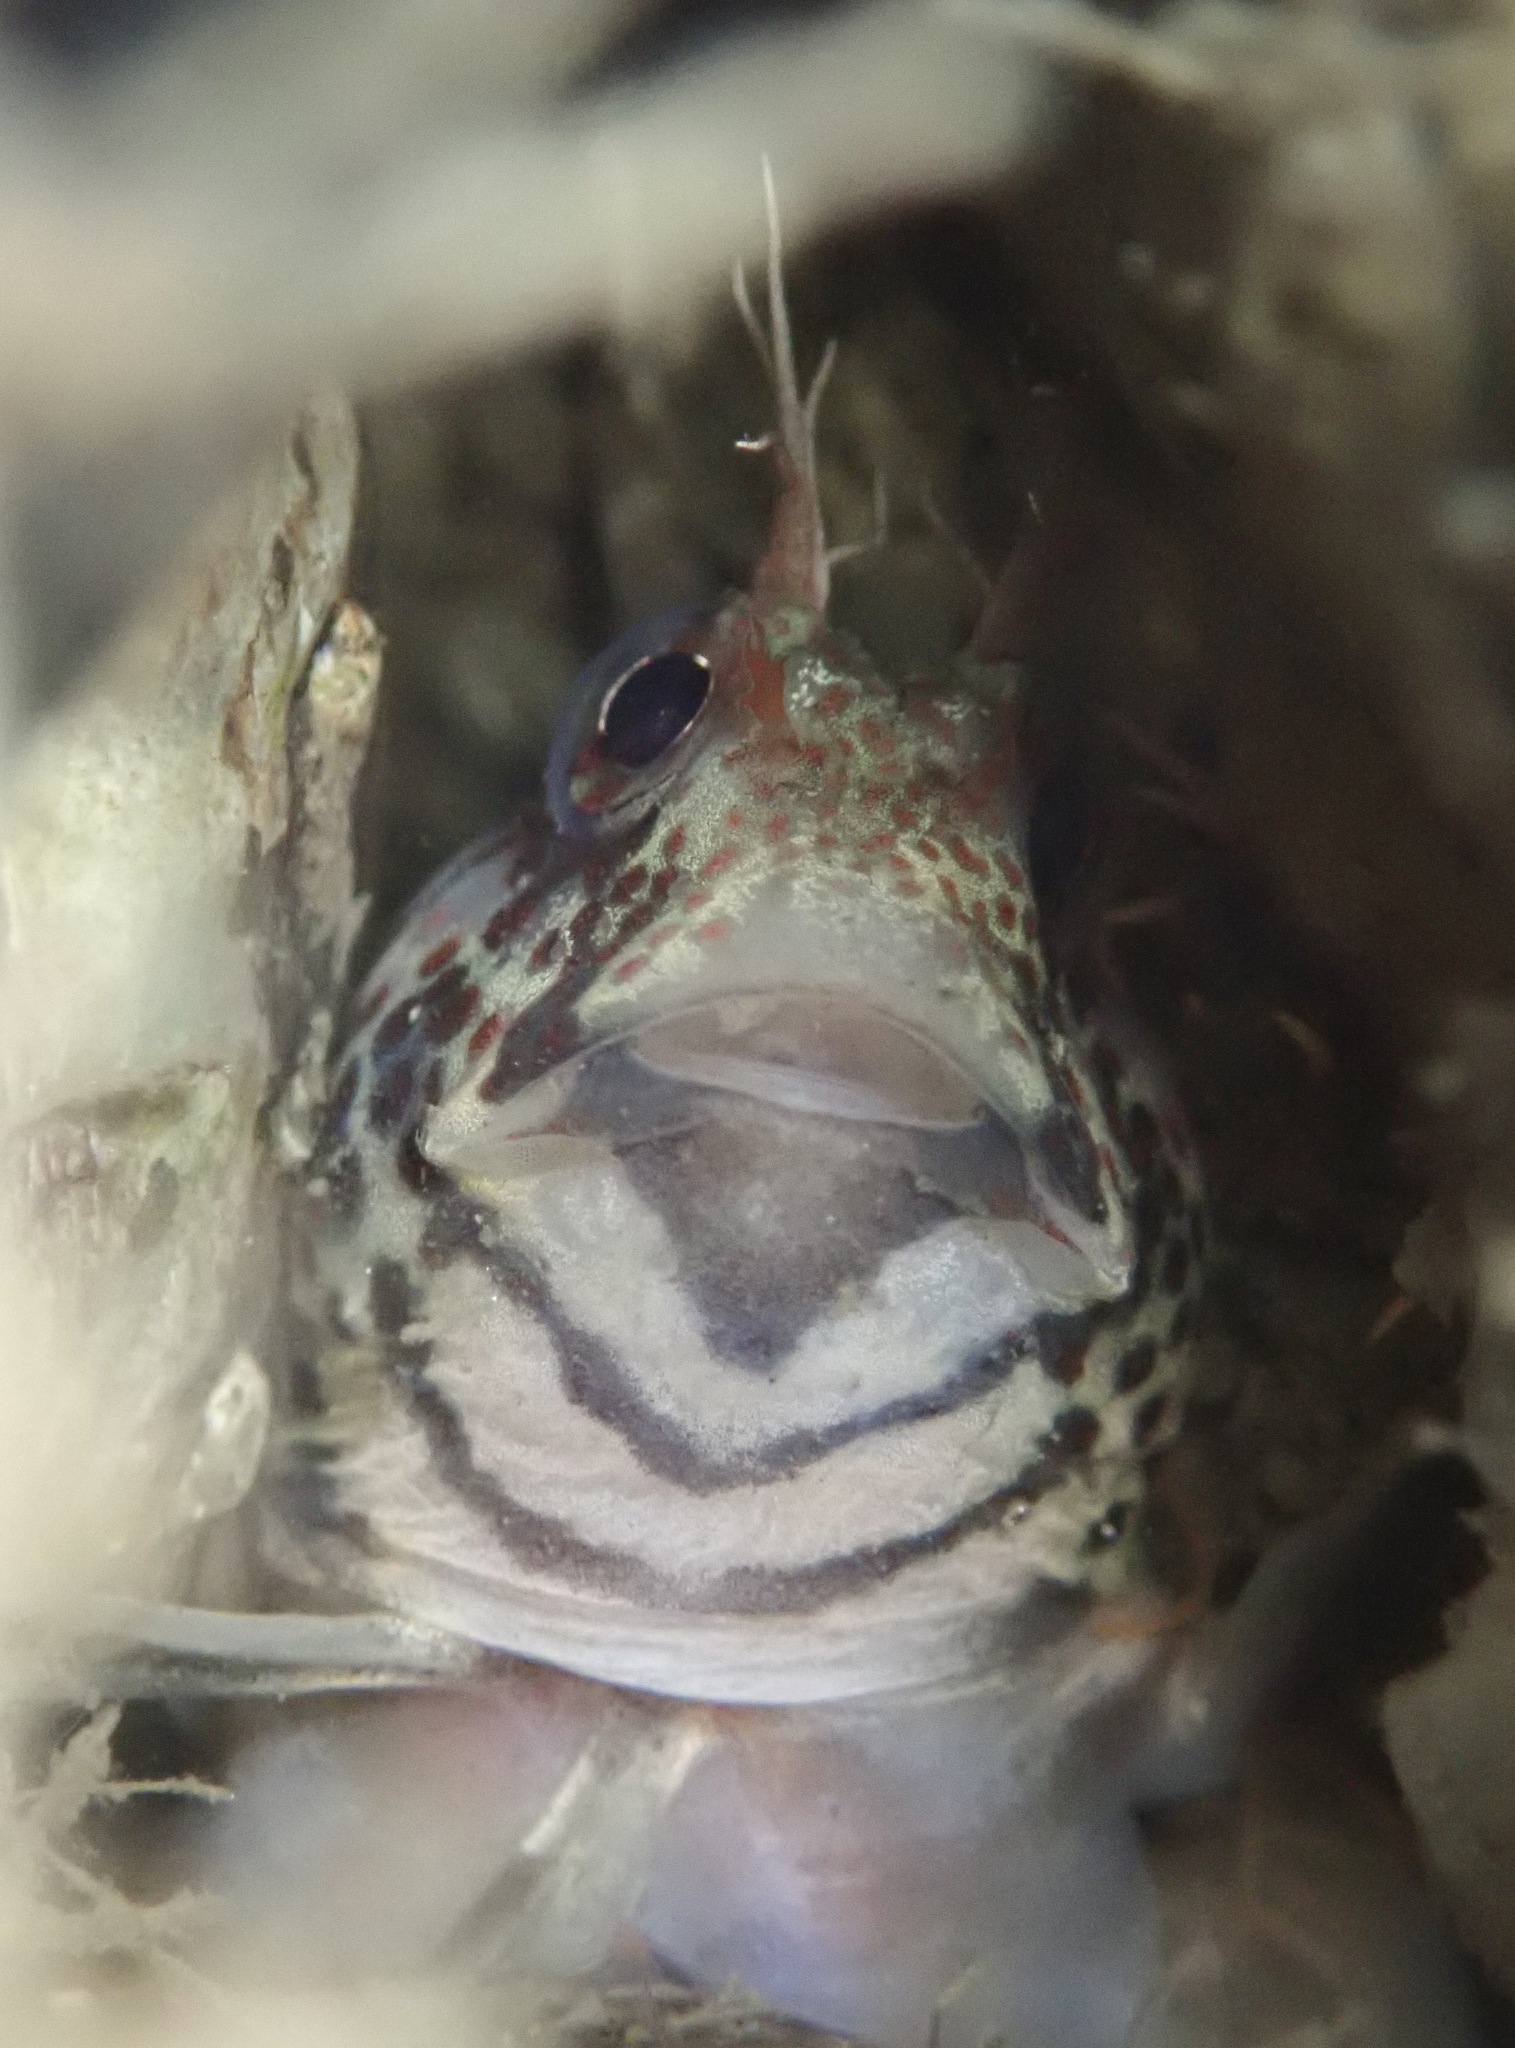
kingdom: Animalia
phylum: Chordata
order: Perciformes
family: Blenniidae
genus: Hypsoblennius
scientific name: Hypsoblennius jenkinsi
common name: Mussel blenny
